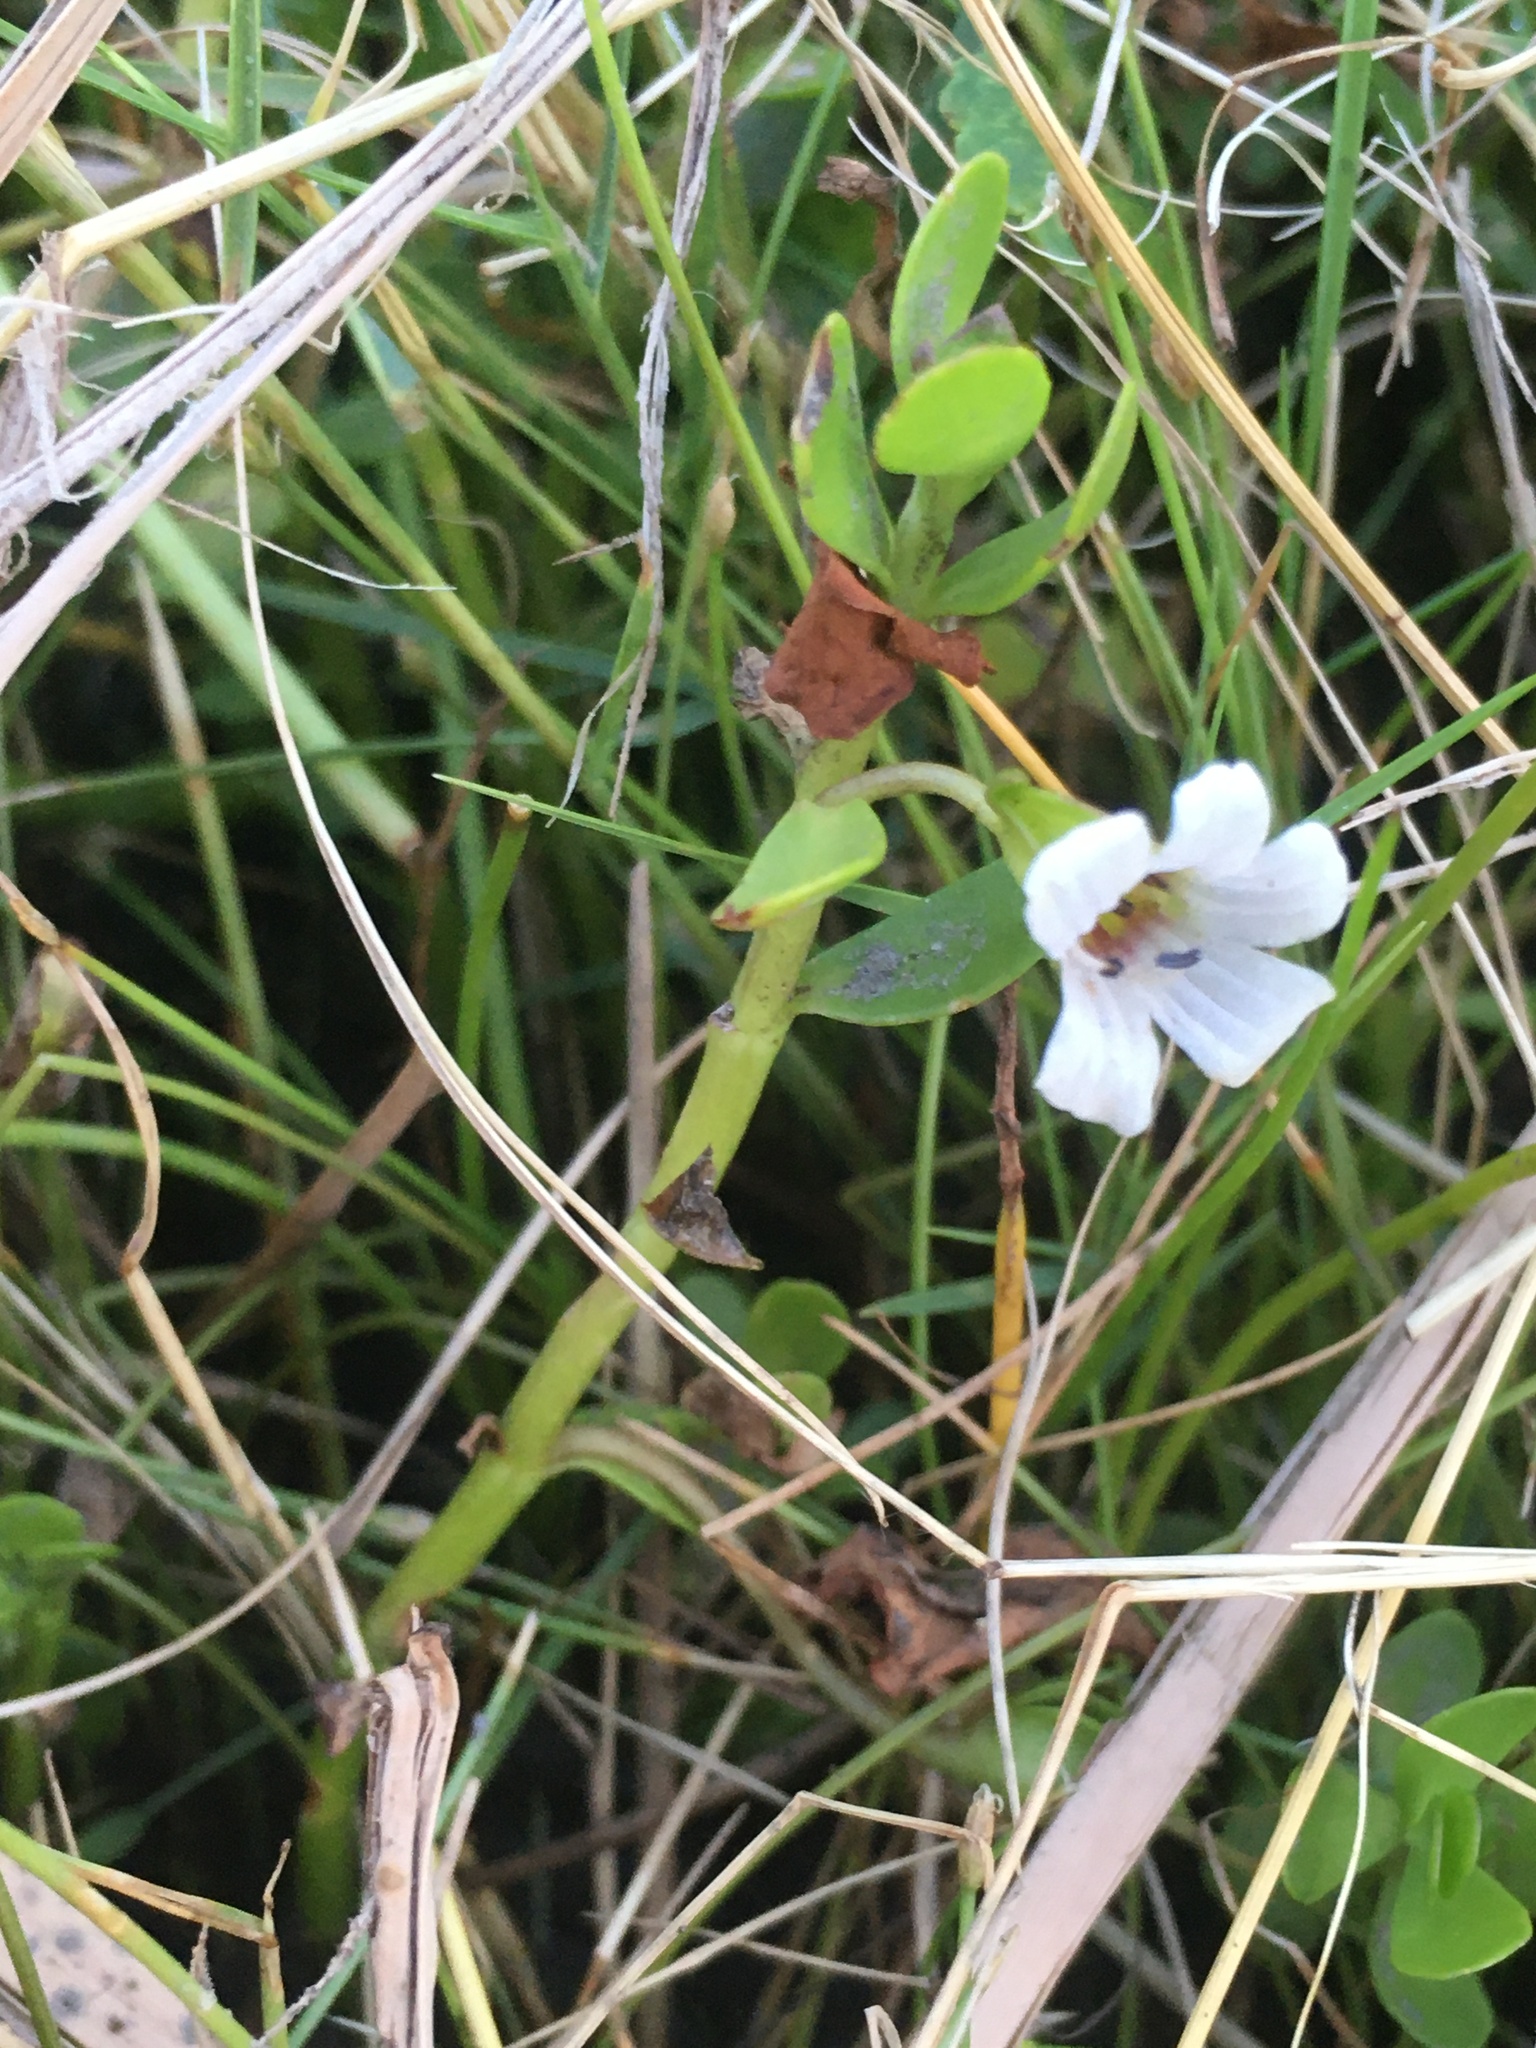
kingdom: Plantae
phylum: Tracheophyta
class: Magnoliopsida
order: Lamiales
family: Plantaginaceae
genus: Bacopa
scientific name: Bacopa monnieri
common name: Indian-pennywort
